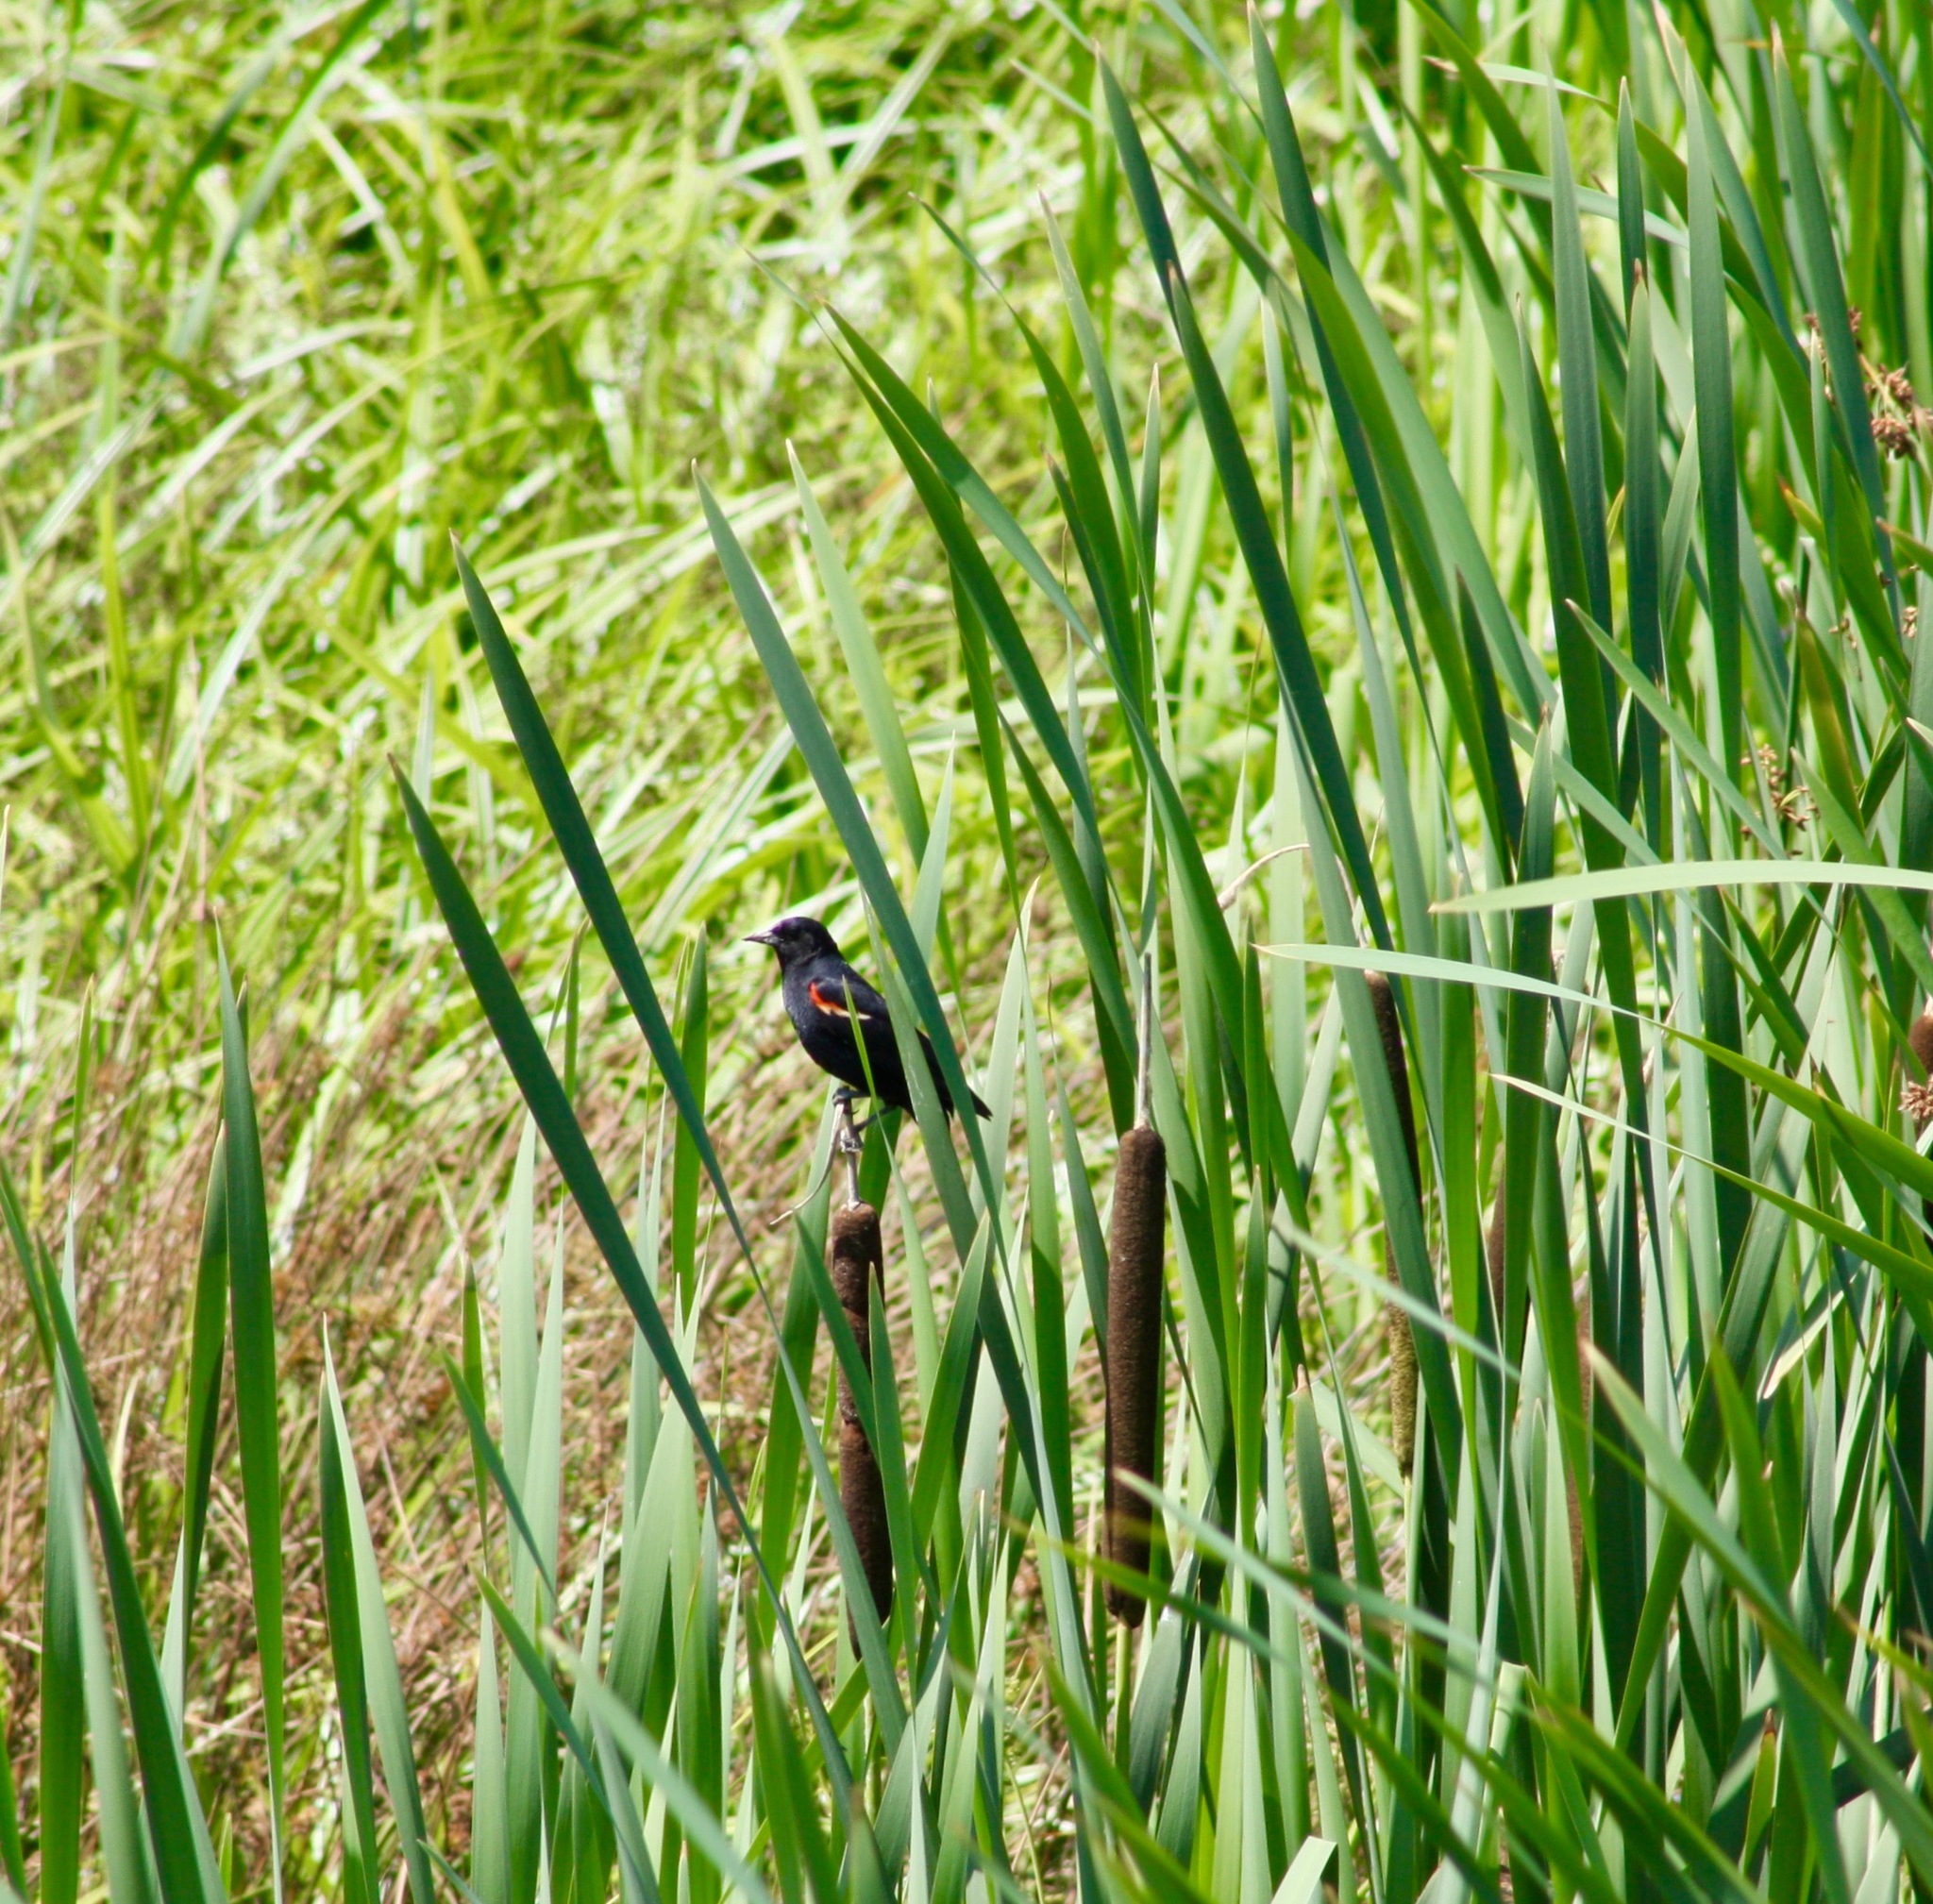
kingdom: Animalia
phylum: Chordata
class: Aves
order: Passeriformes
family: Icteridae
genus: Agelaius
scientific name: Agelaius phoeniceus
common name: Red-winged blackbird
